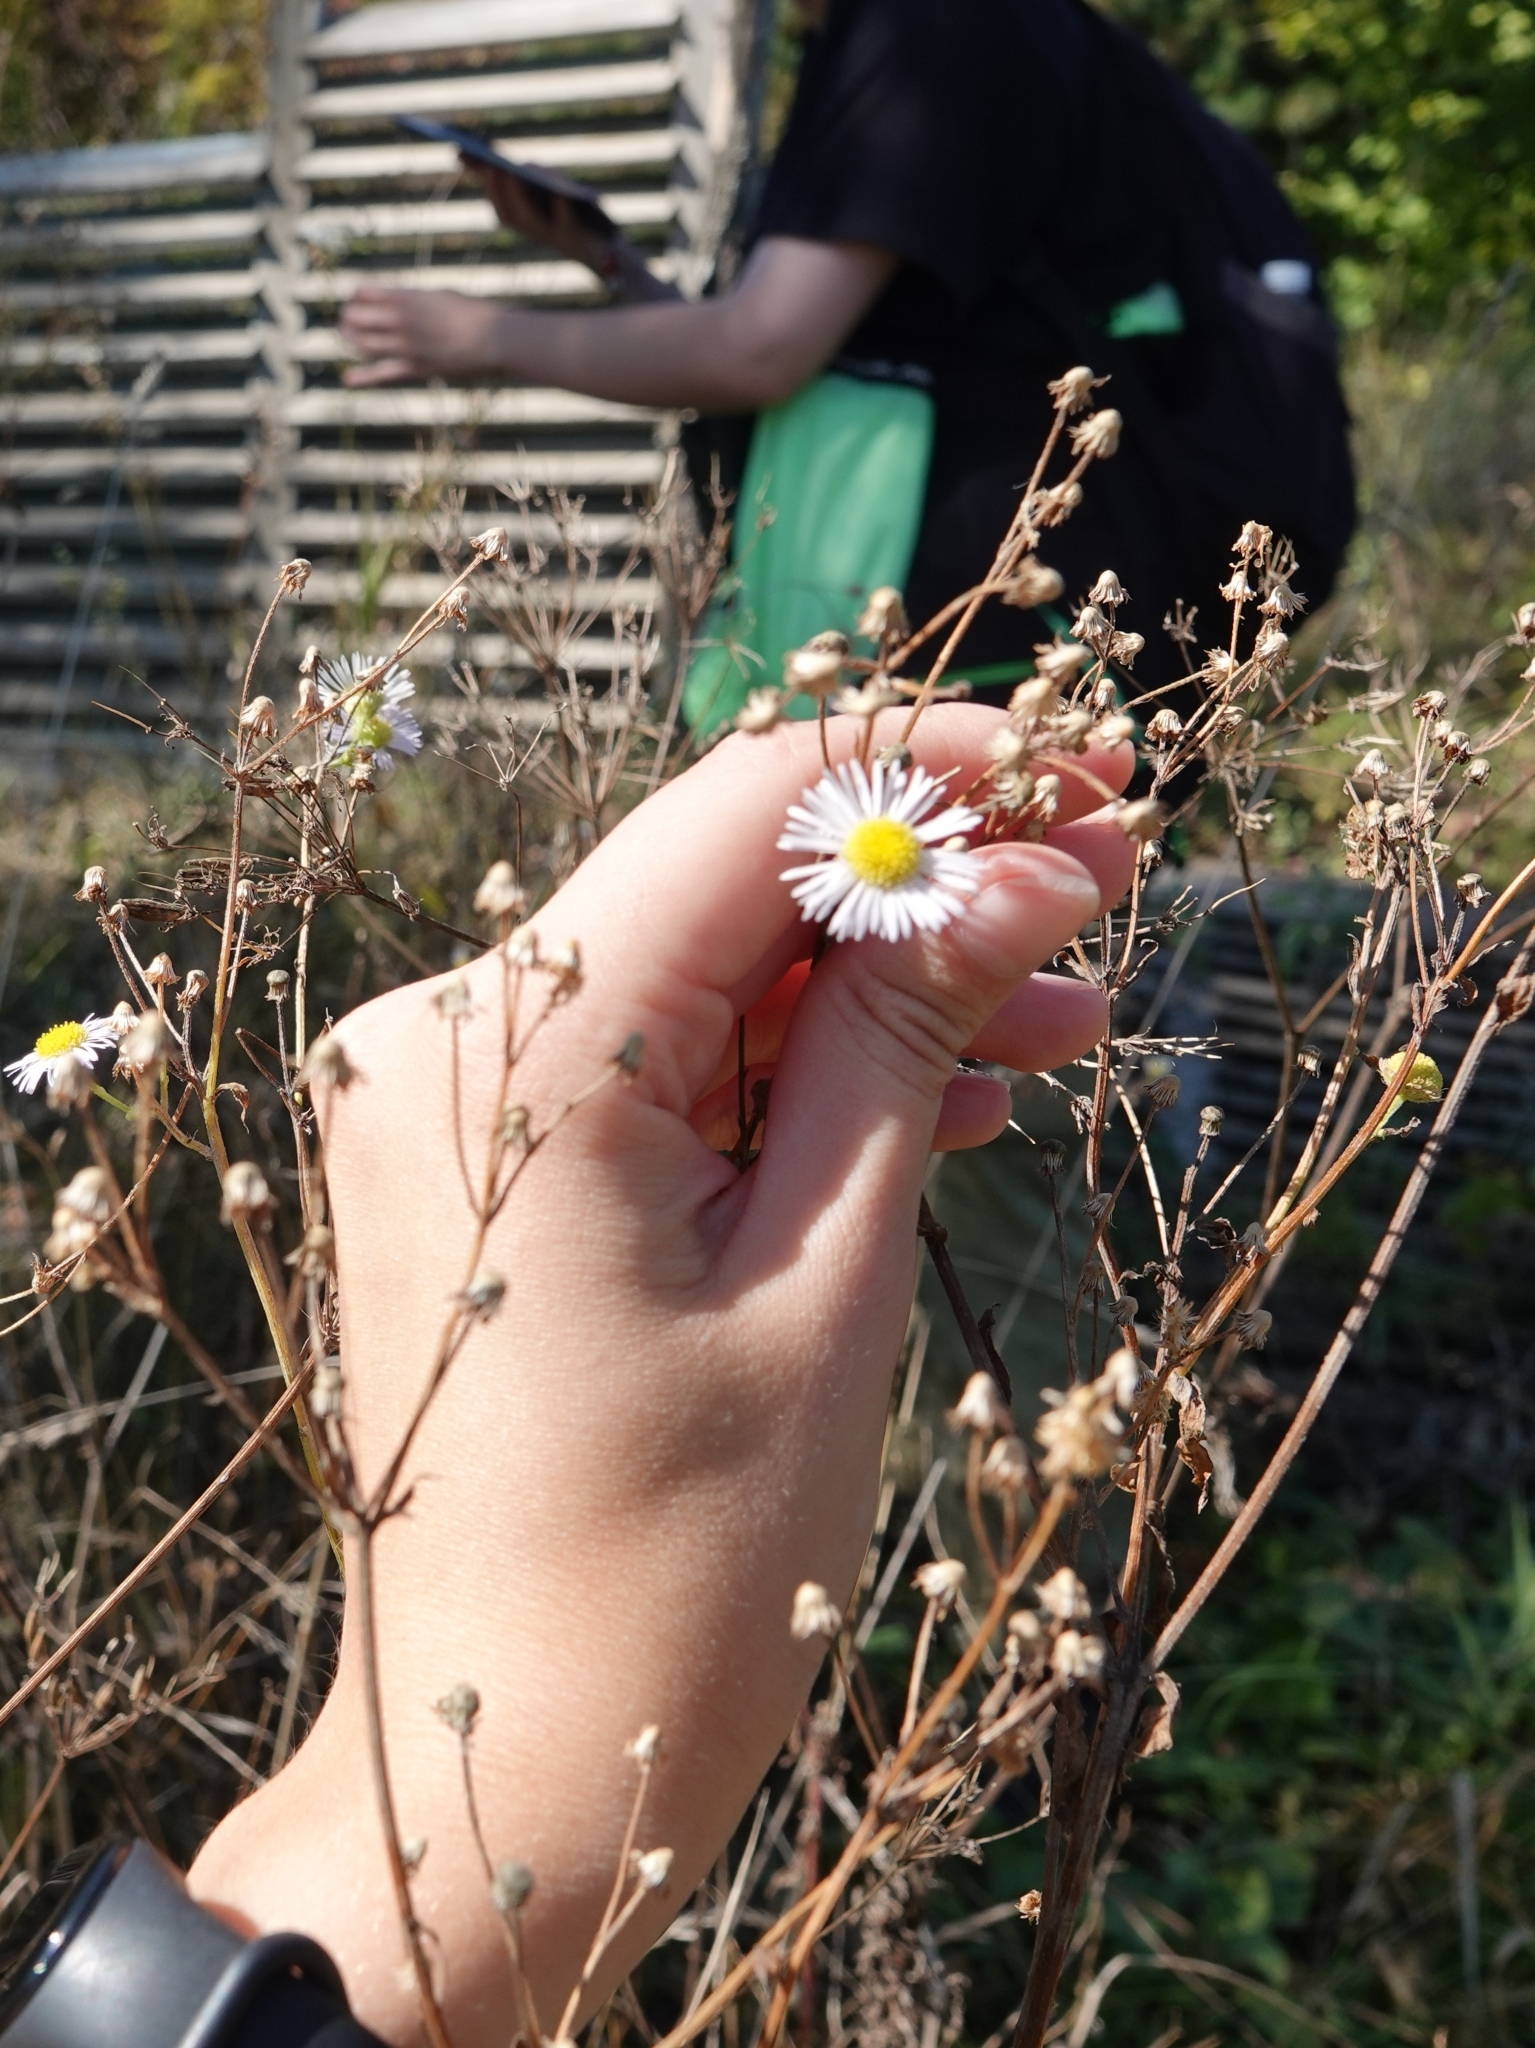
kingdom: Plantae
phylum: Tracheophyta
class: Magnoliopsida
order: Asterales
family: Asteraceae
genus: Erigeron
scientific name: Erigeron annuus
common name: Tall fleabane
